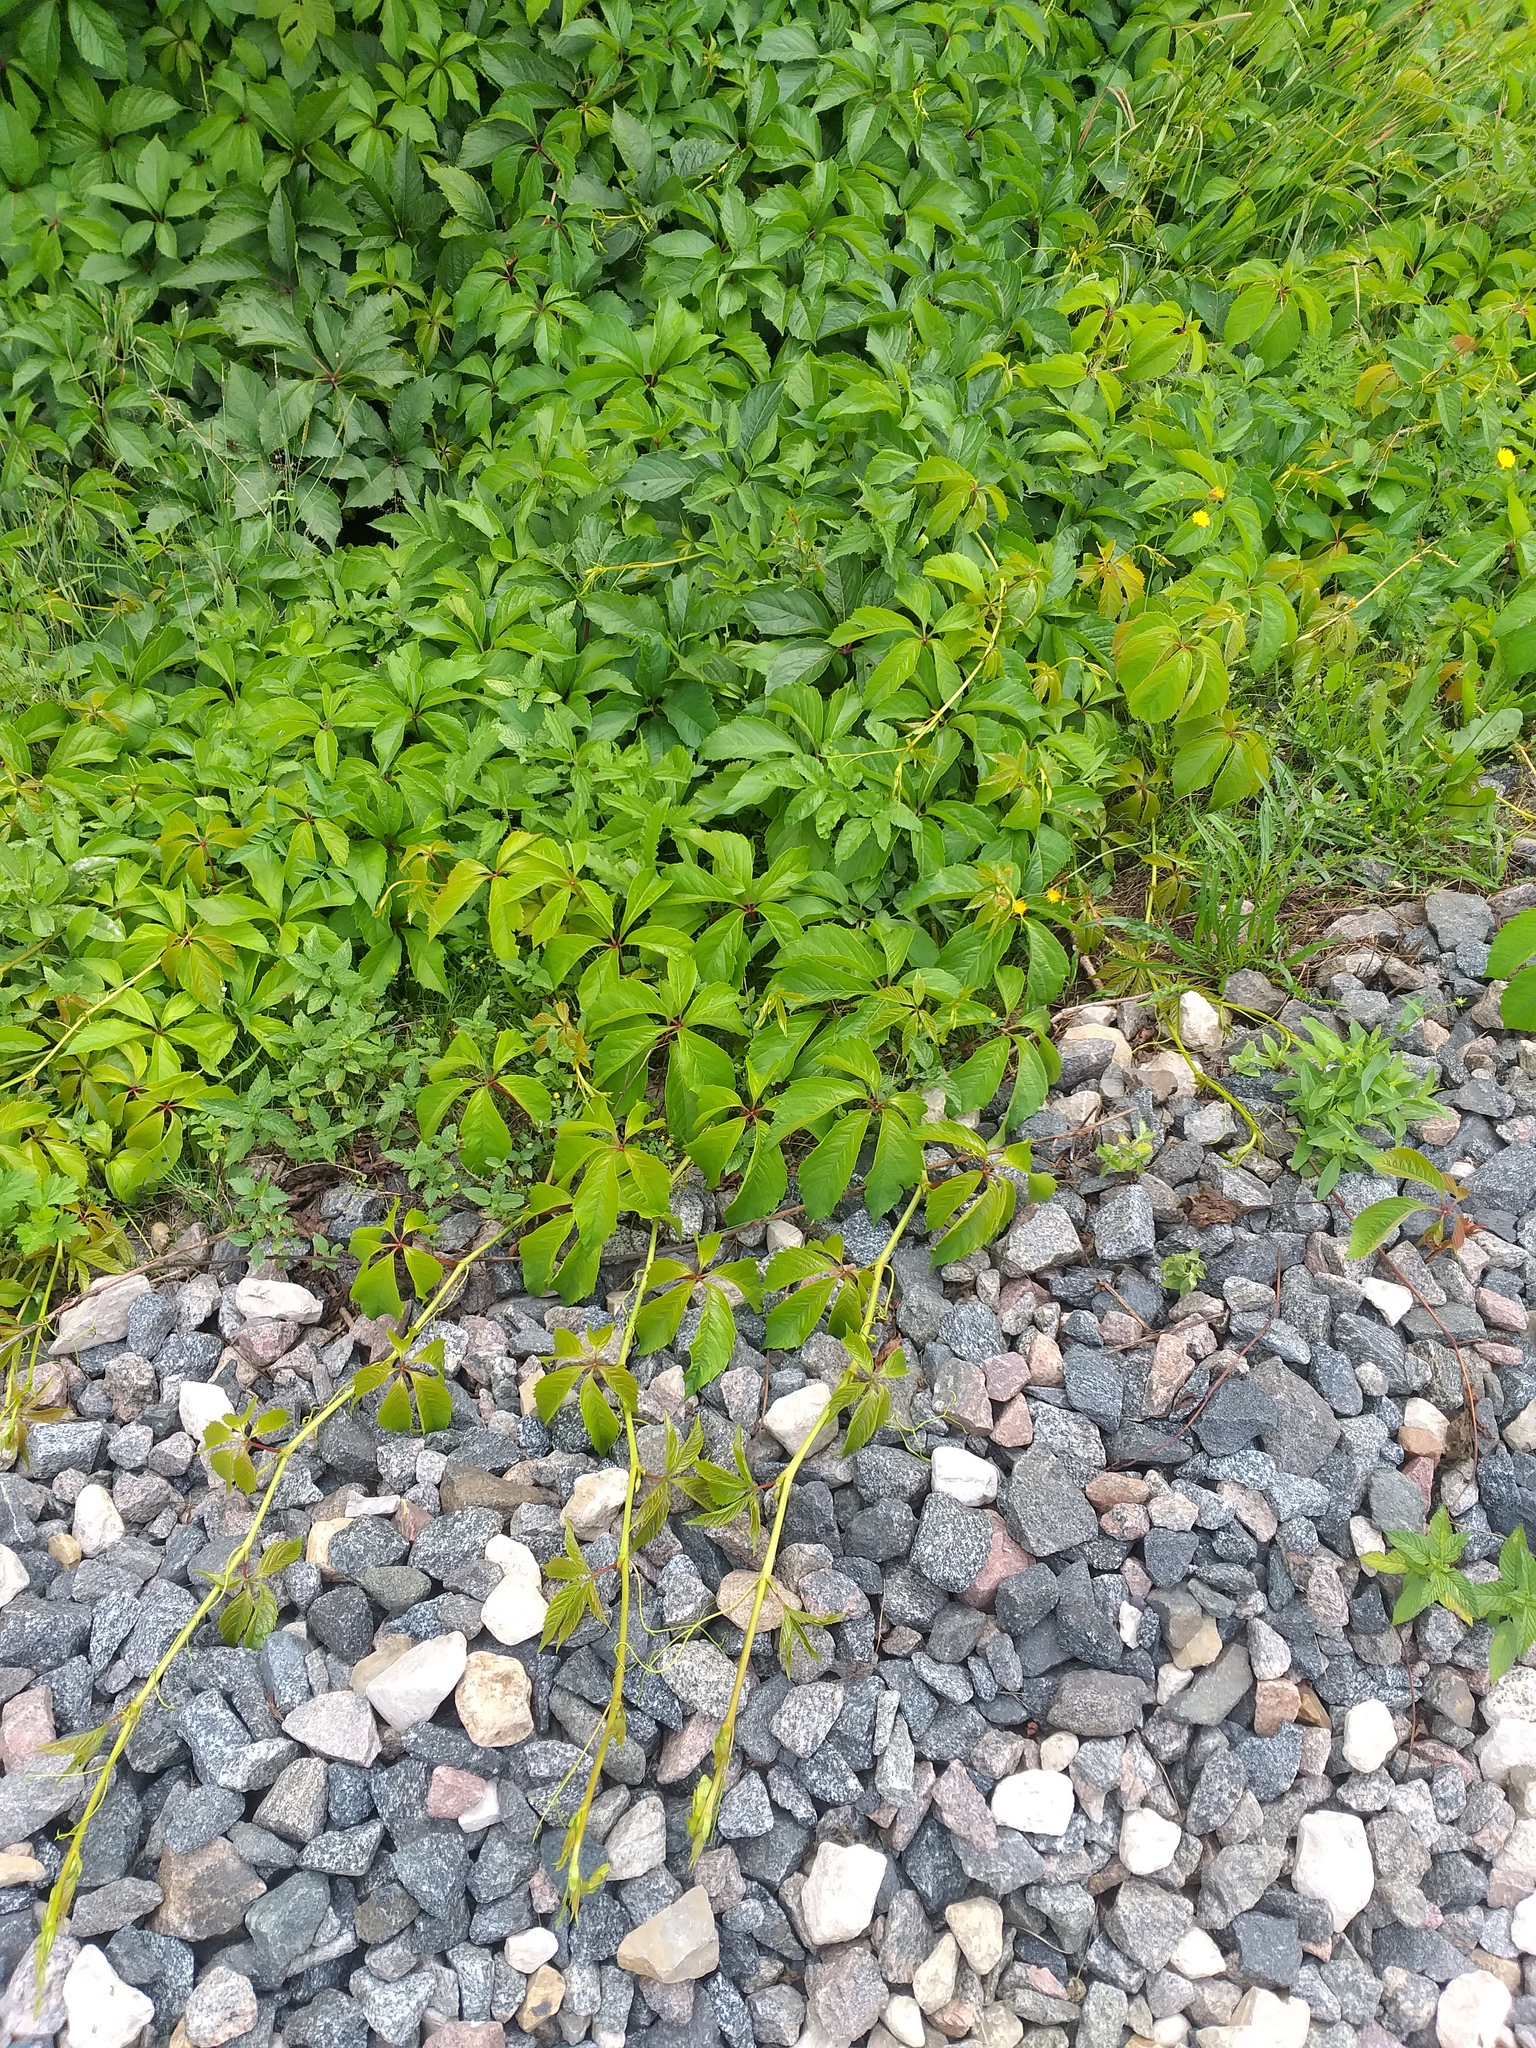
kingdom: Plantae
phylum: Tracheophyta
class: Magnoliopsida
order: Vitales
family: Vitaceae
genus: Parthenocissus
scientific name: Parthenocissus inserta
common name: False virginia-creeper
